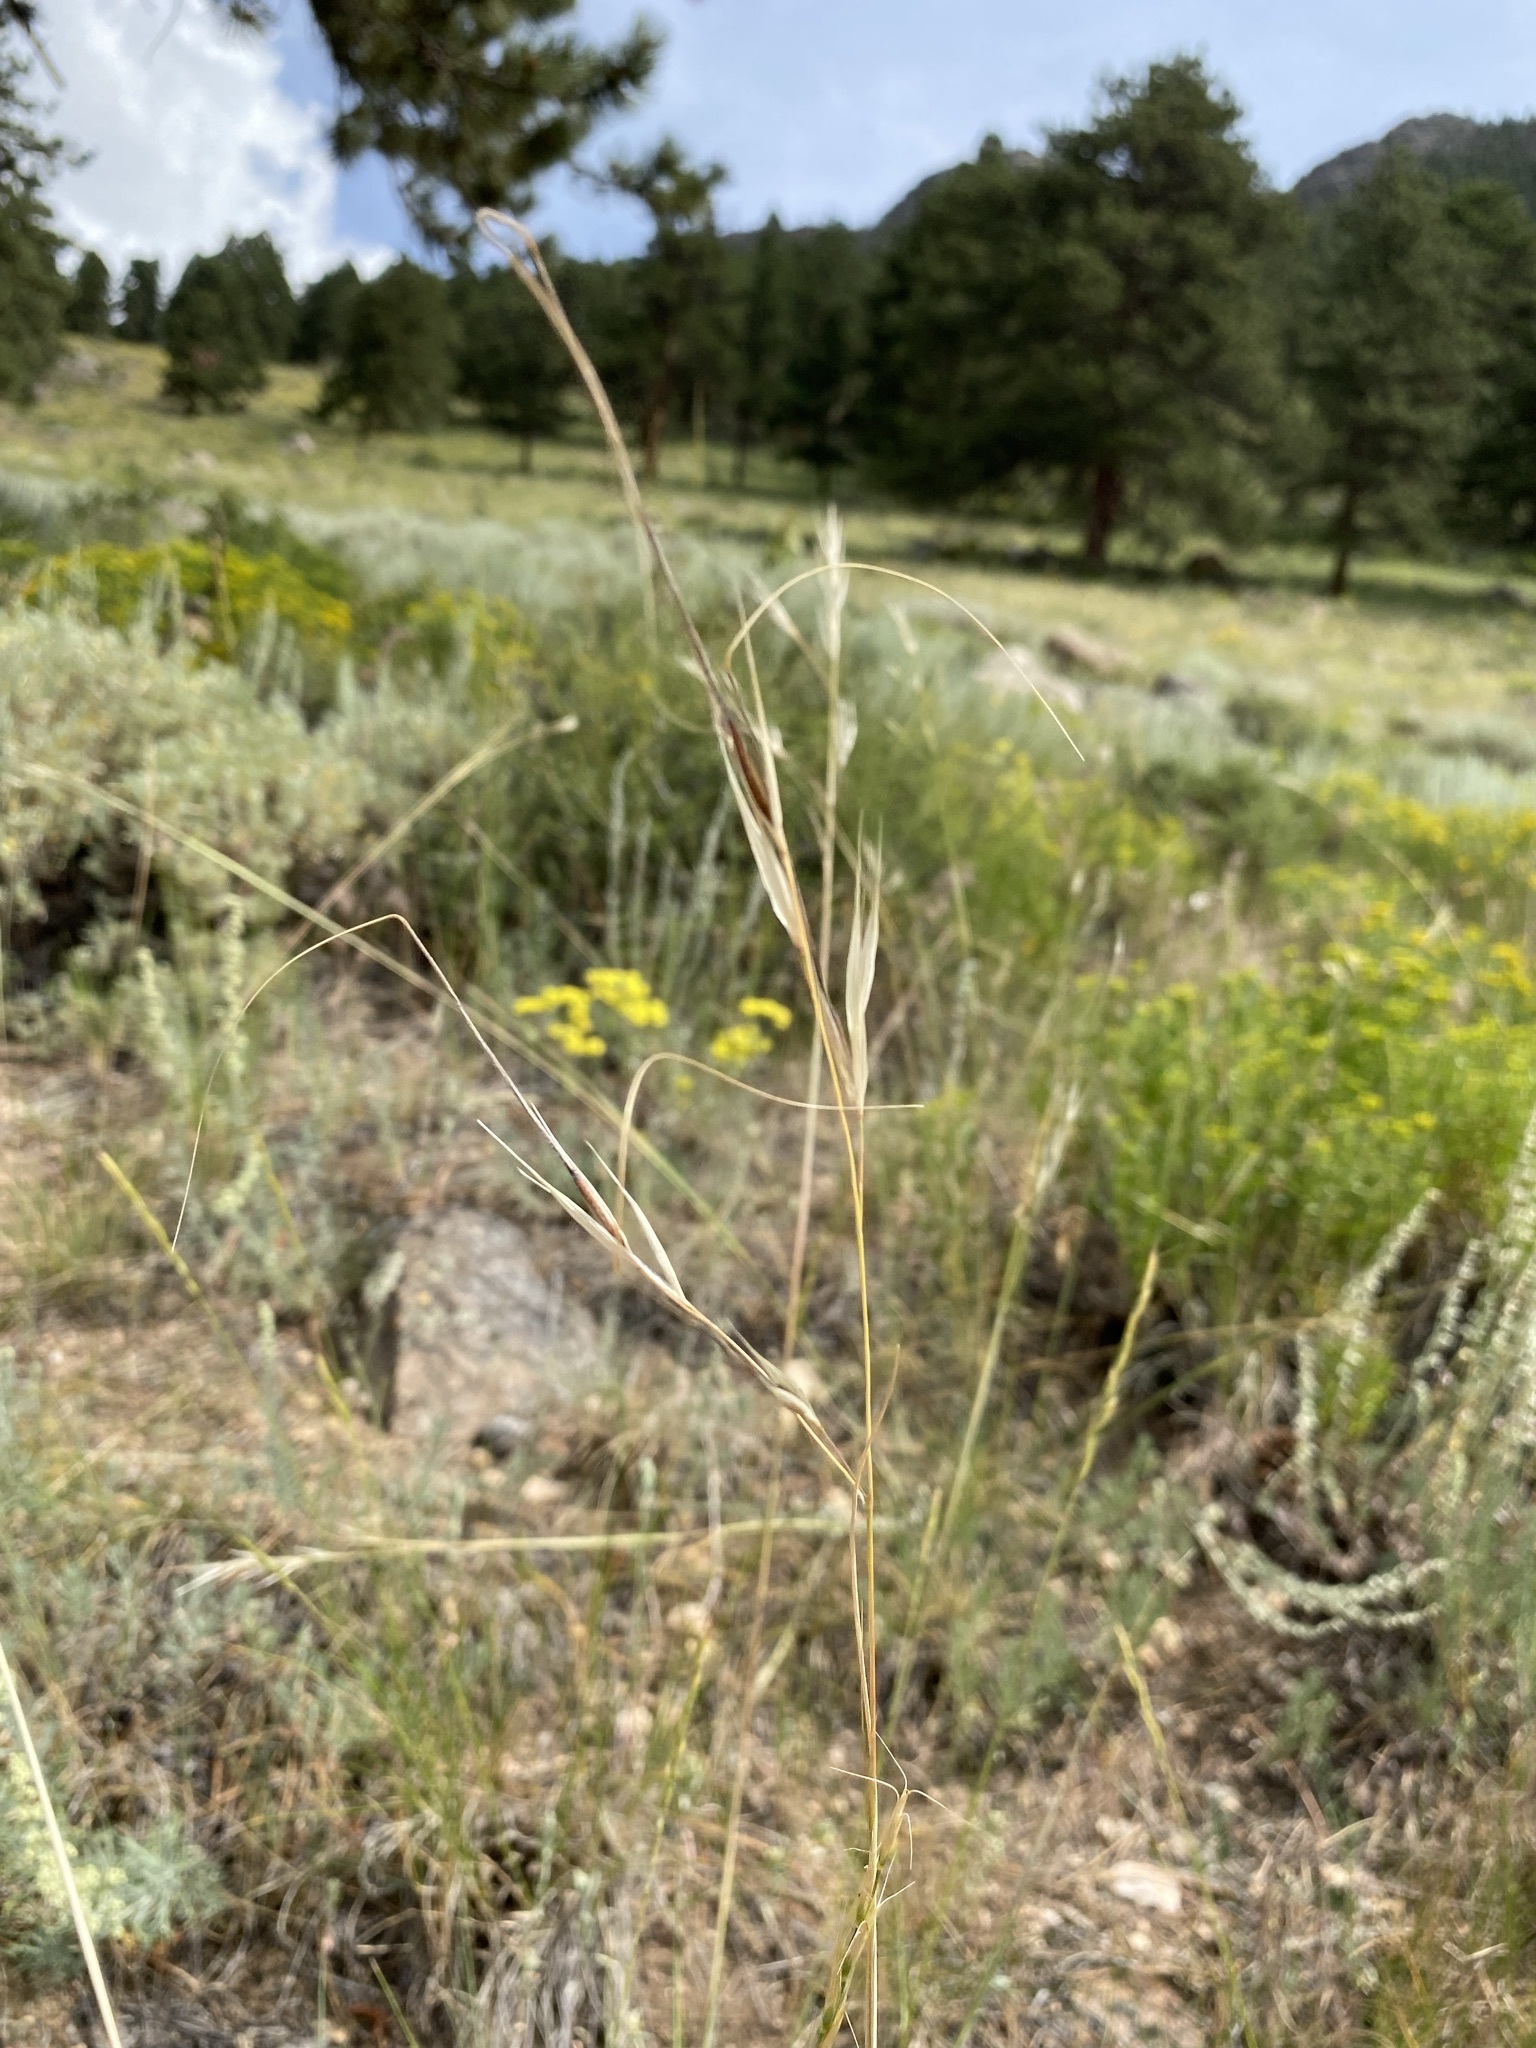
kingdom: Plantae
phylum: Tracheophyta
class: Liliopsida
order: Poales
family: Poaceae
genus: Hesperostipa
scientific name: Hesperostipa comata
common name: Needle-and-thread grass
